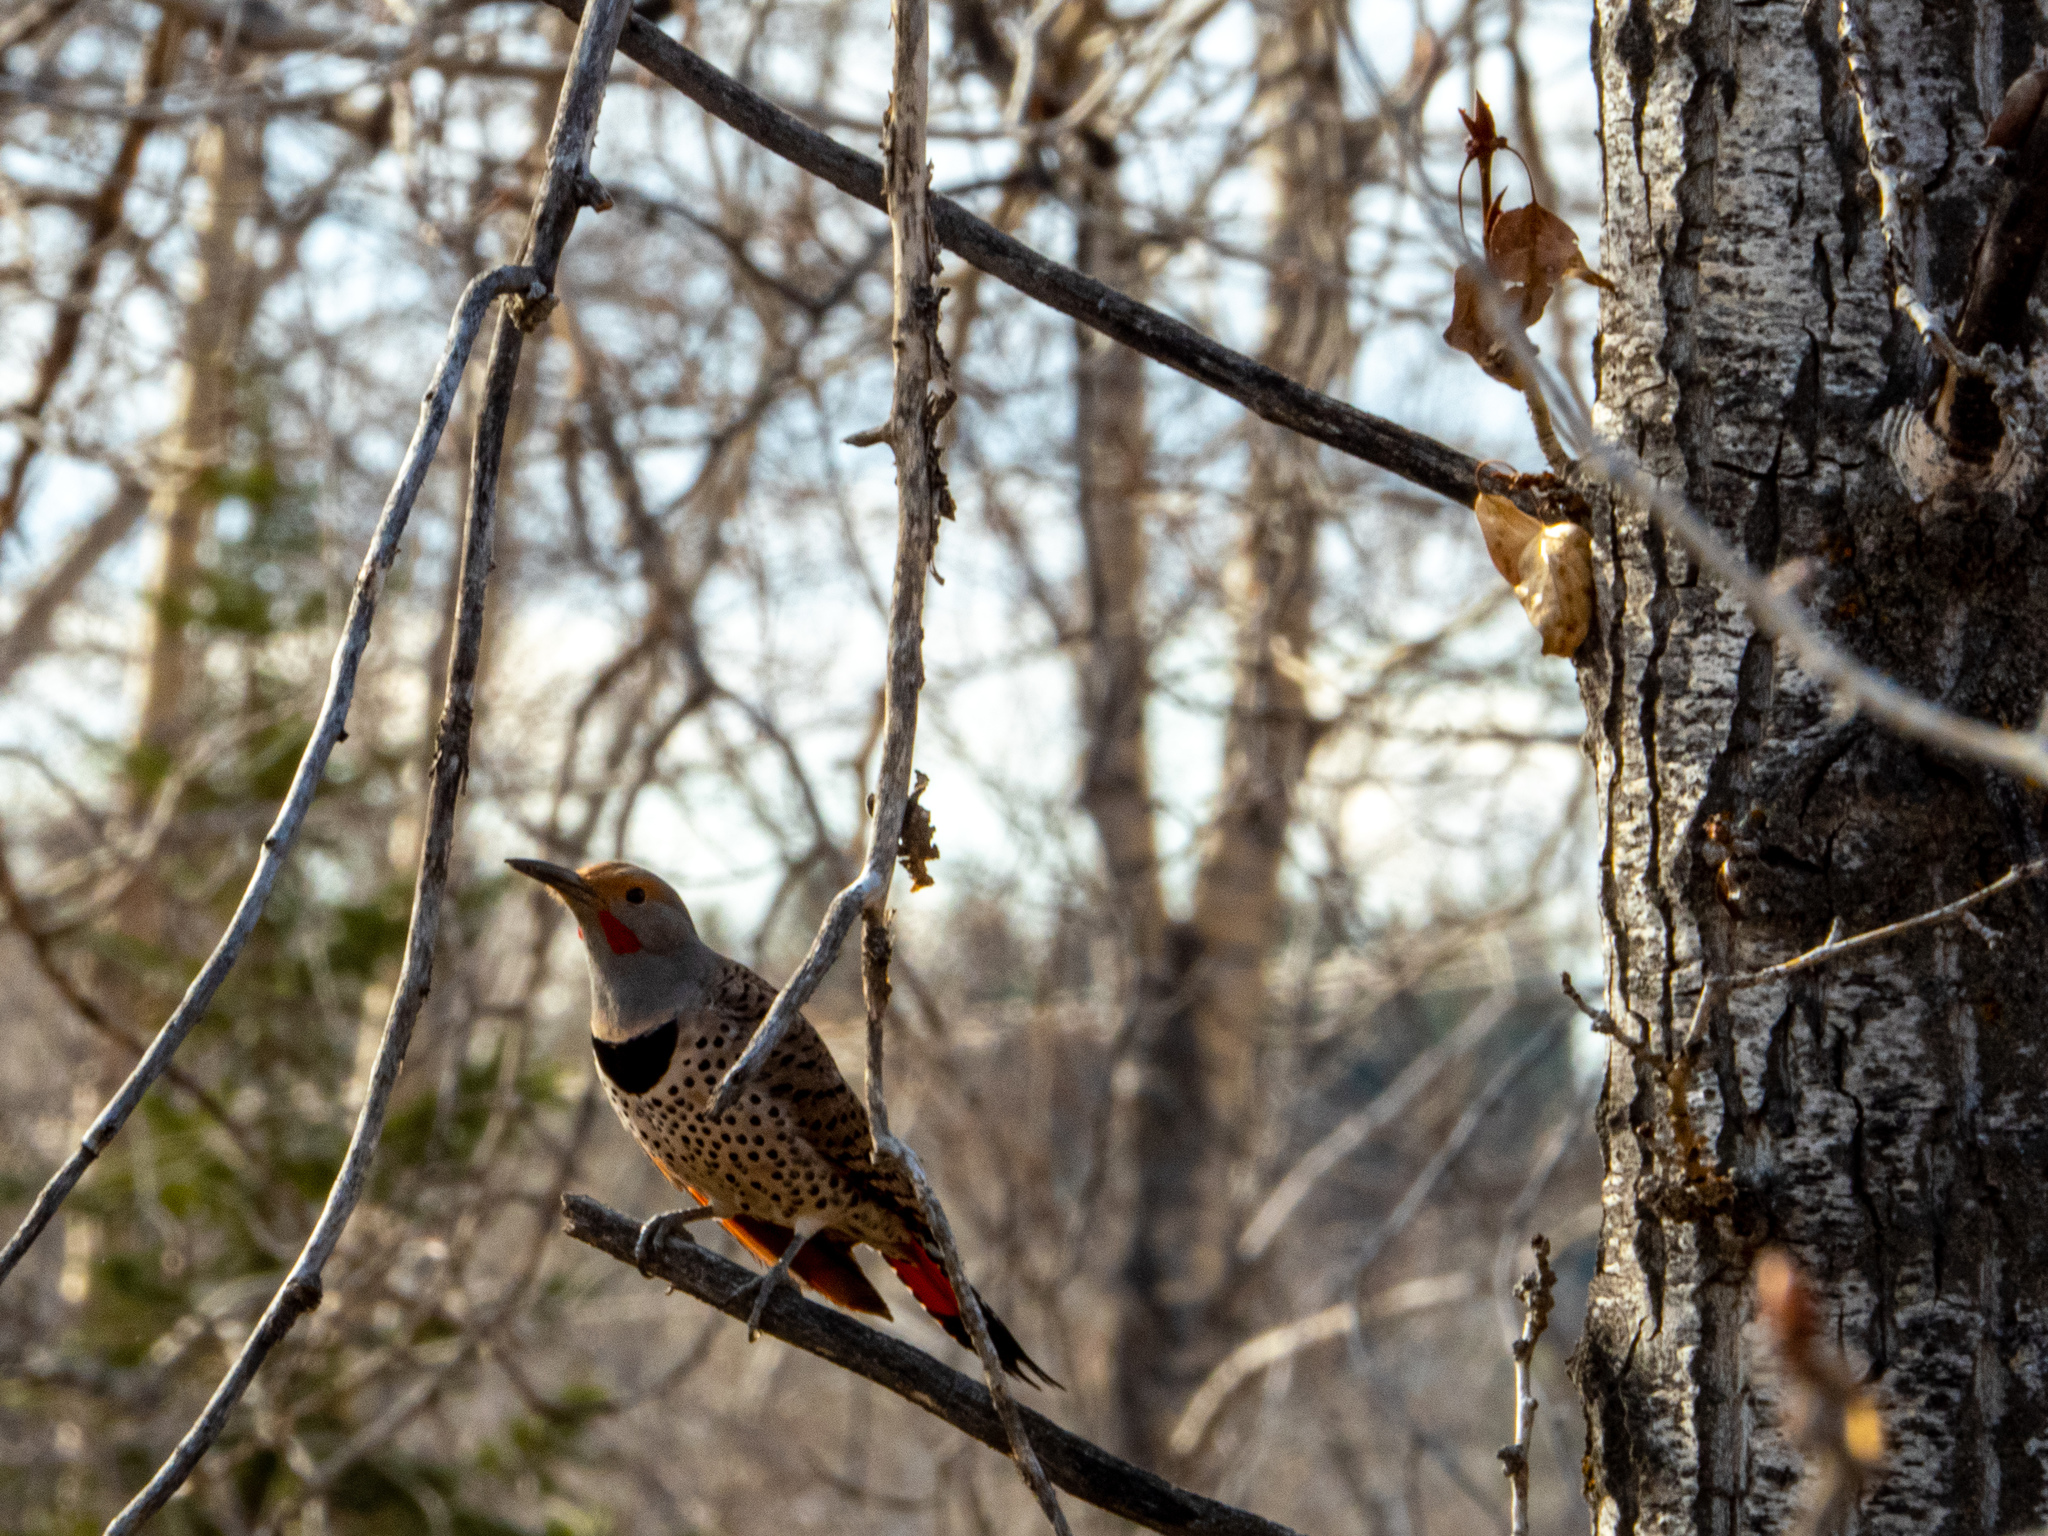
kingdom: Animalia
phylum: Chordata
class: Aves
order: Piciformes
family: Picidae
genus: Colaptes
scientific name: Colaptes auratus
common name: Northern flicker
